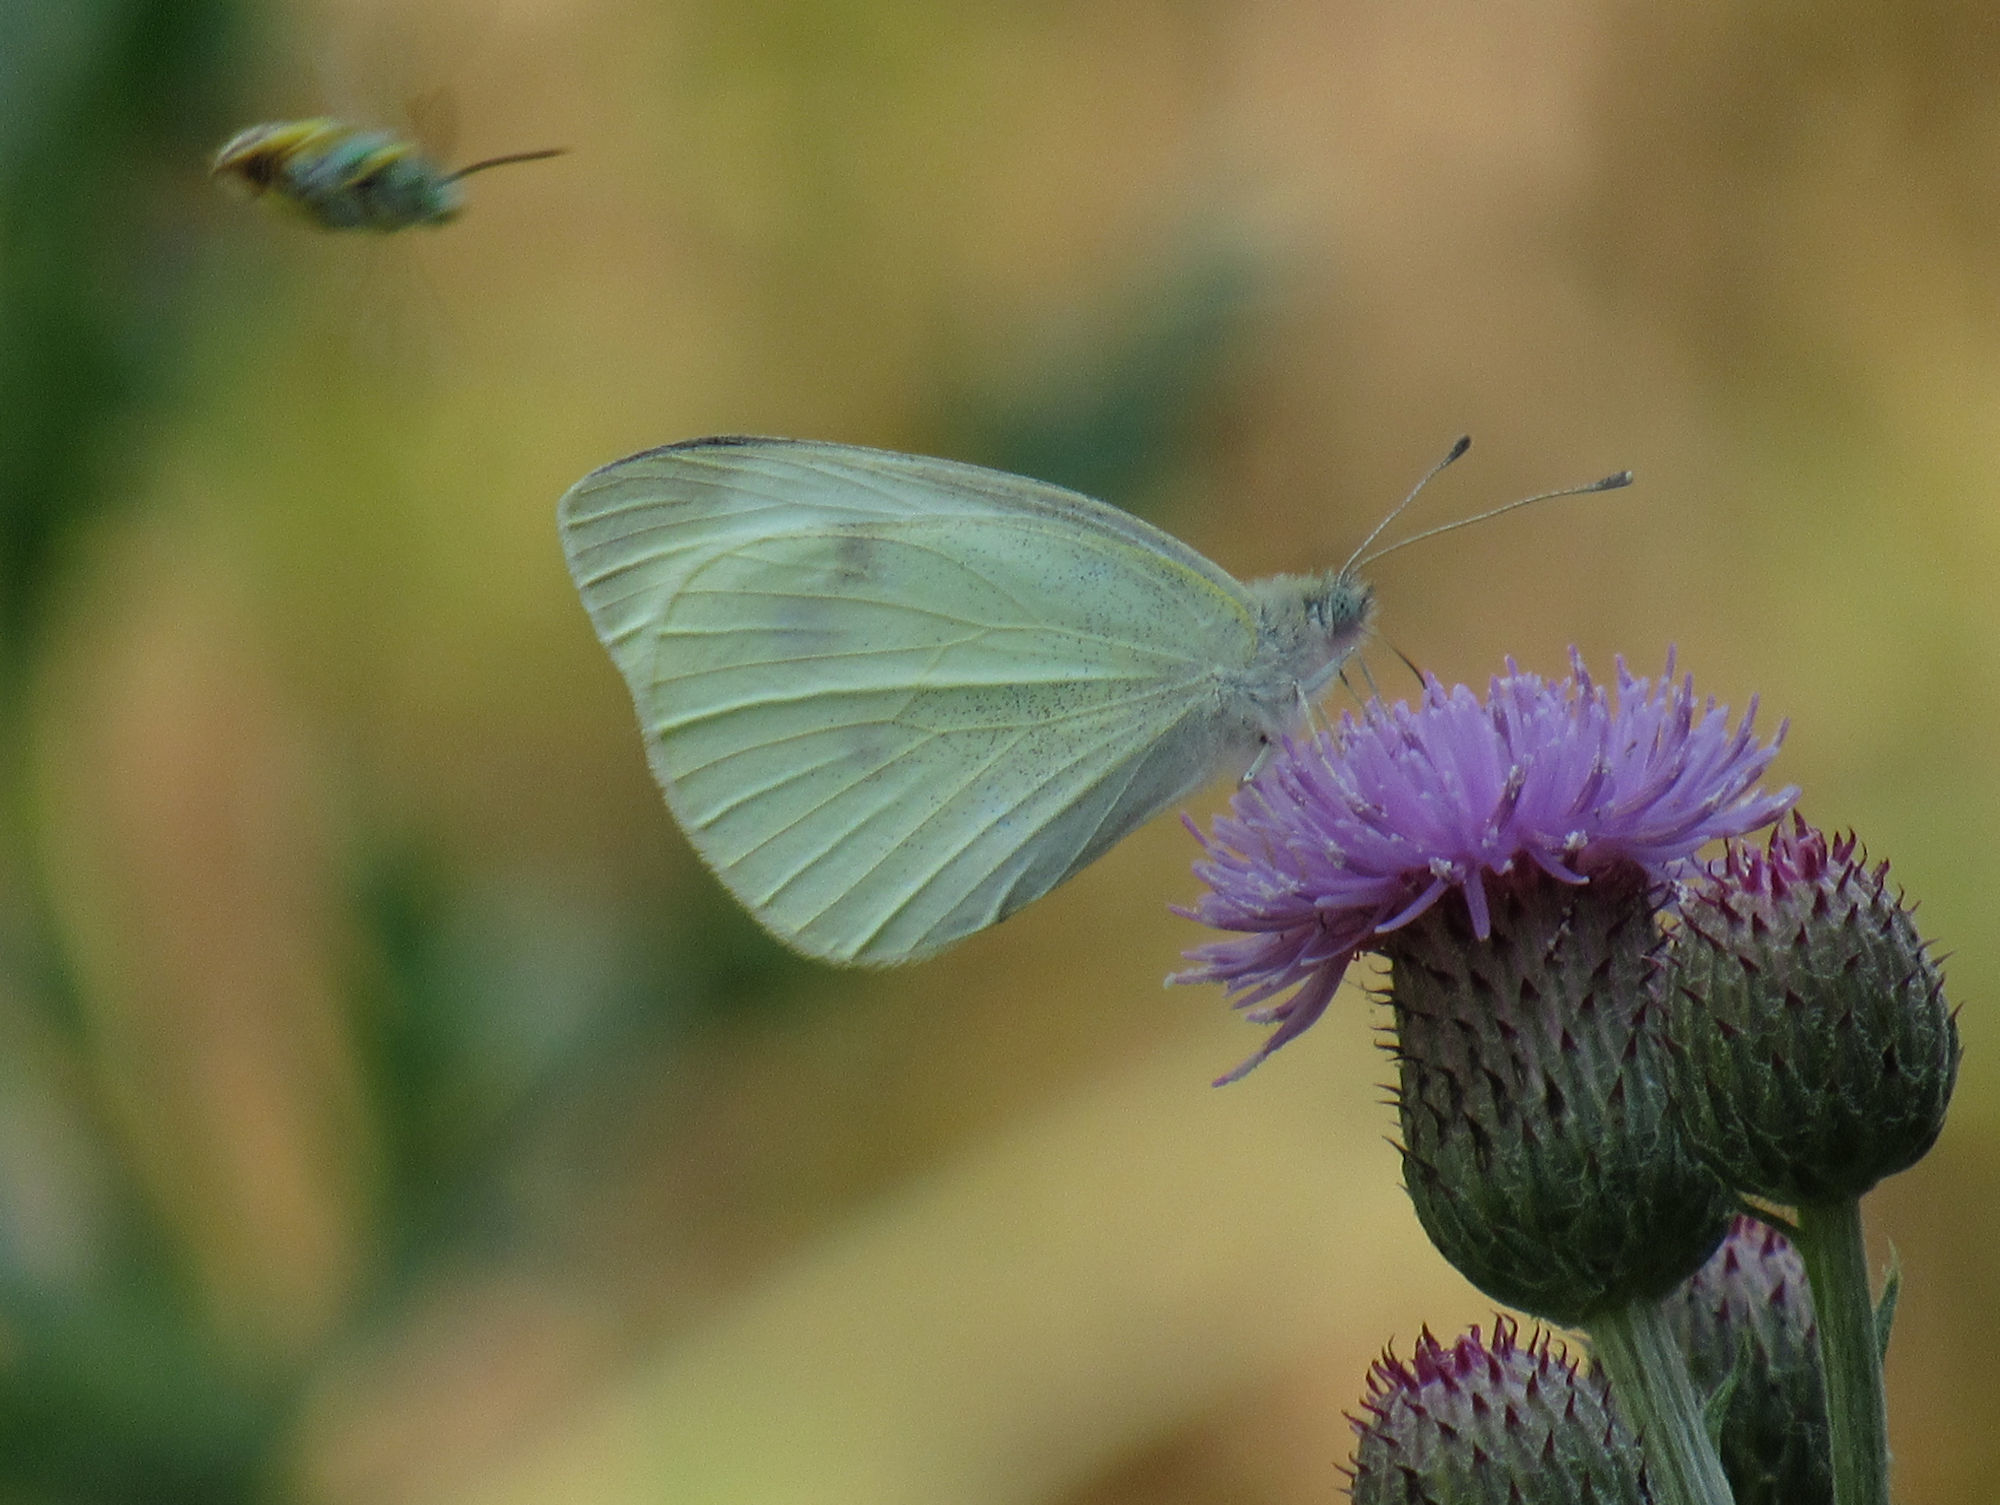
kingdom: Animalia
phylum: Arthropoda
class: Insecta
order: Lepidoptera
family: Pieridae
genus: Pieris
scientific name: Pieris rapae
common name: Small white
